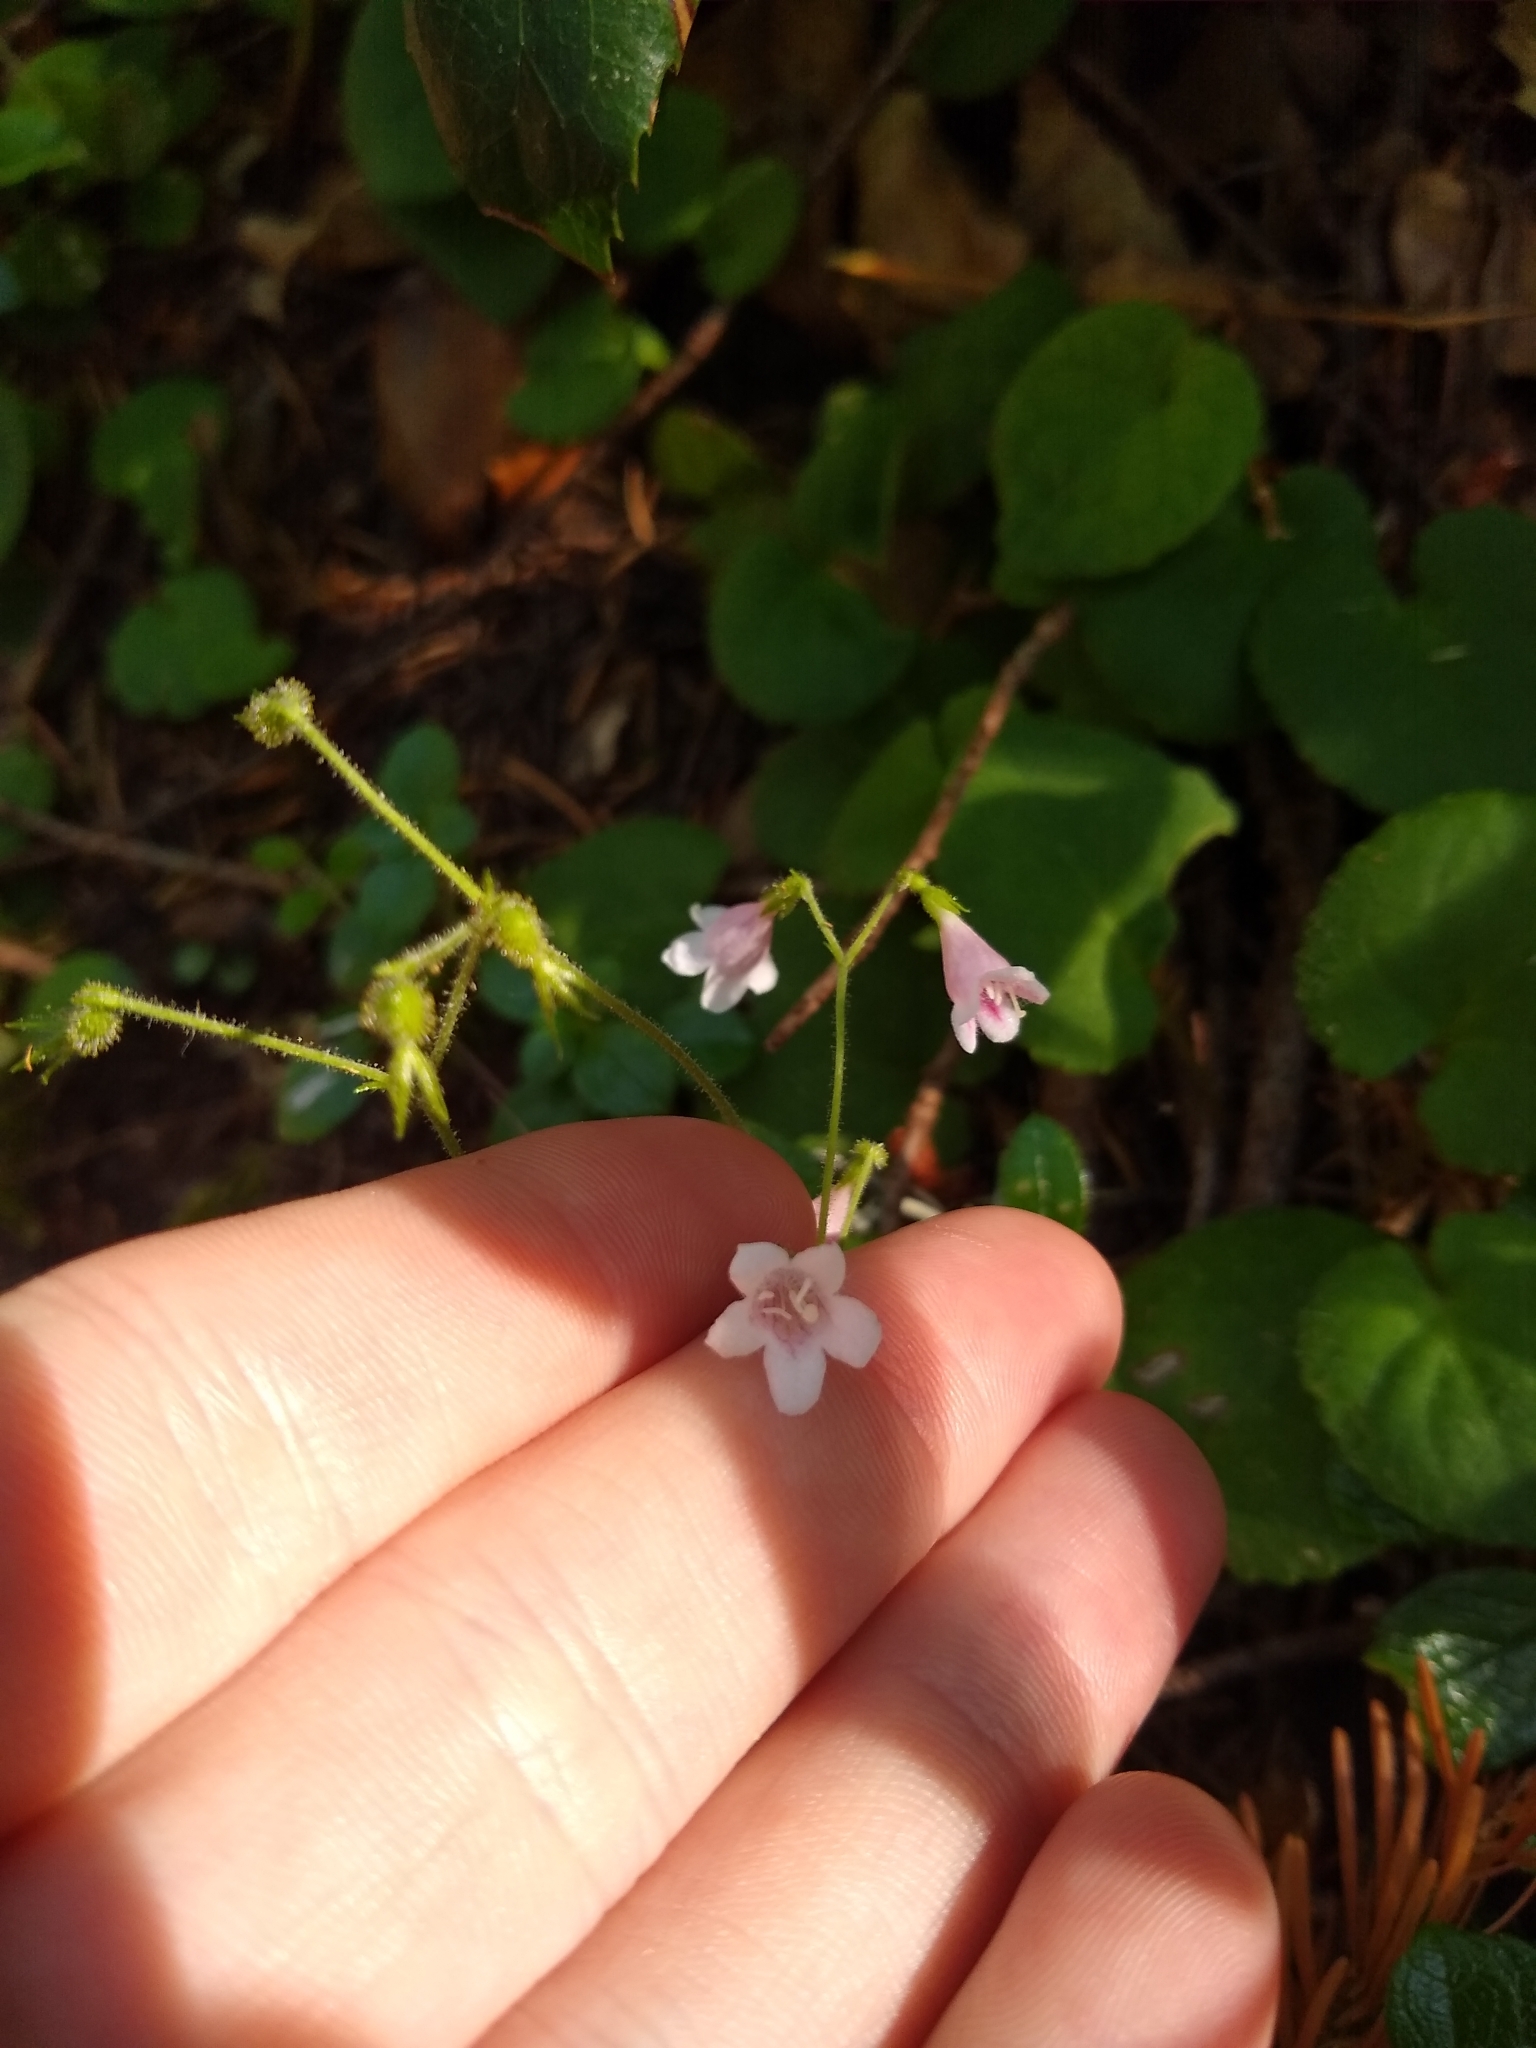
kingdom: Plantae
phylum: Tracheophyta
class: Magnoliopsida
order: Dipsacales
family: Caprifoliaceae
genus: Linnaea
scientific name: Linnaea borealis
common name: Twinflower
